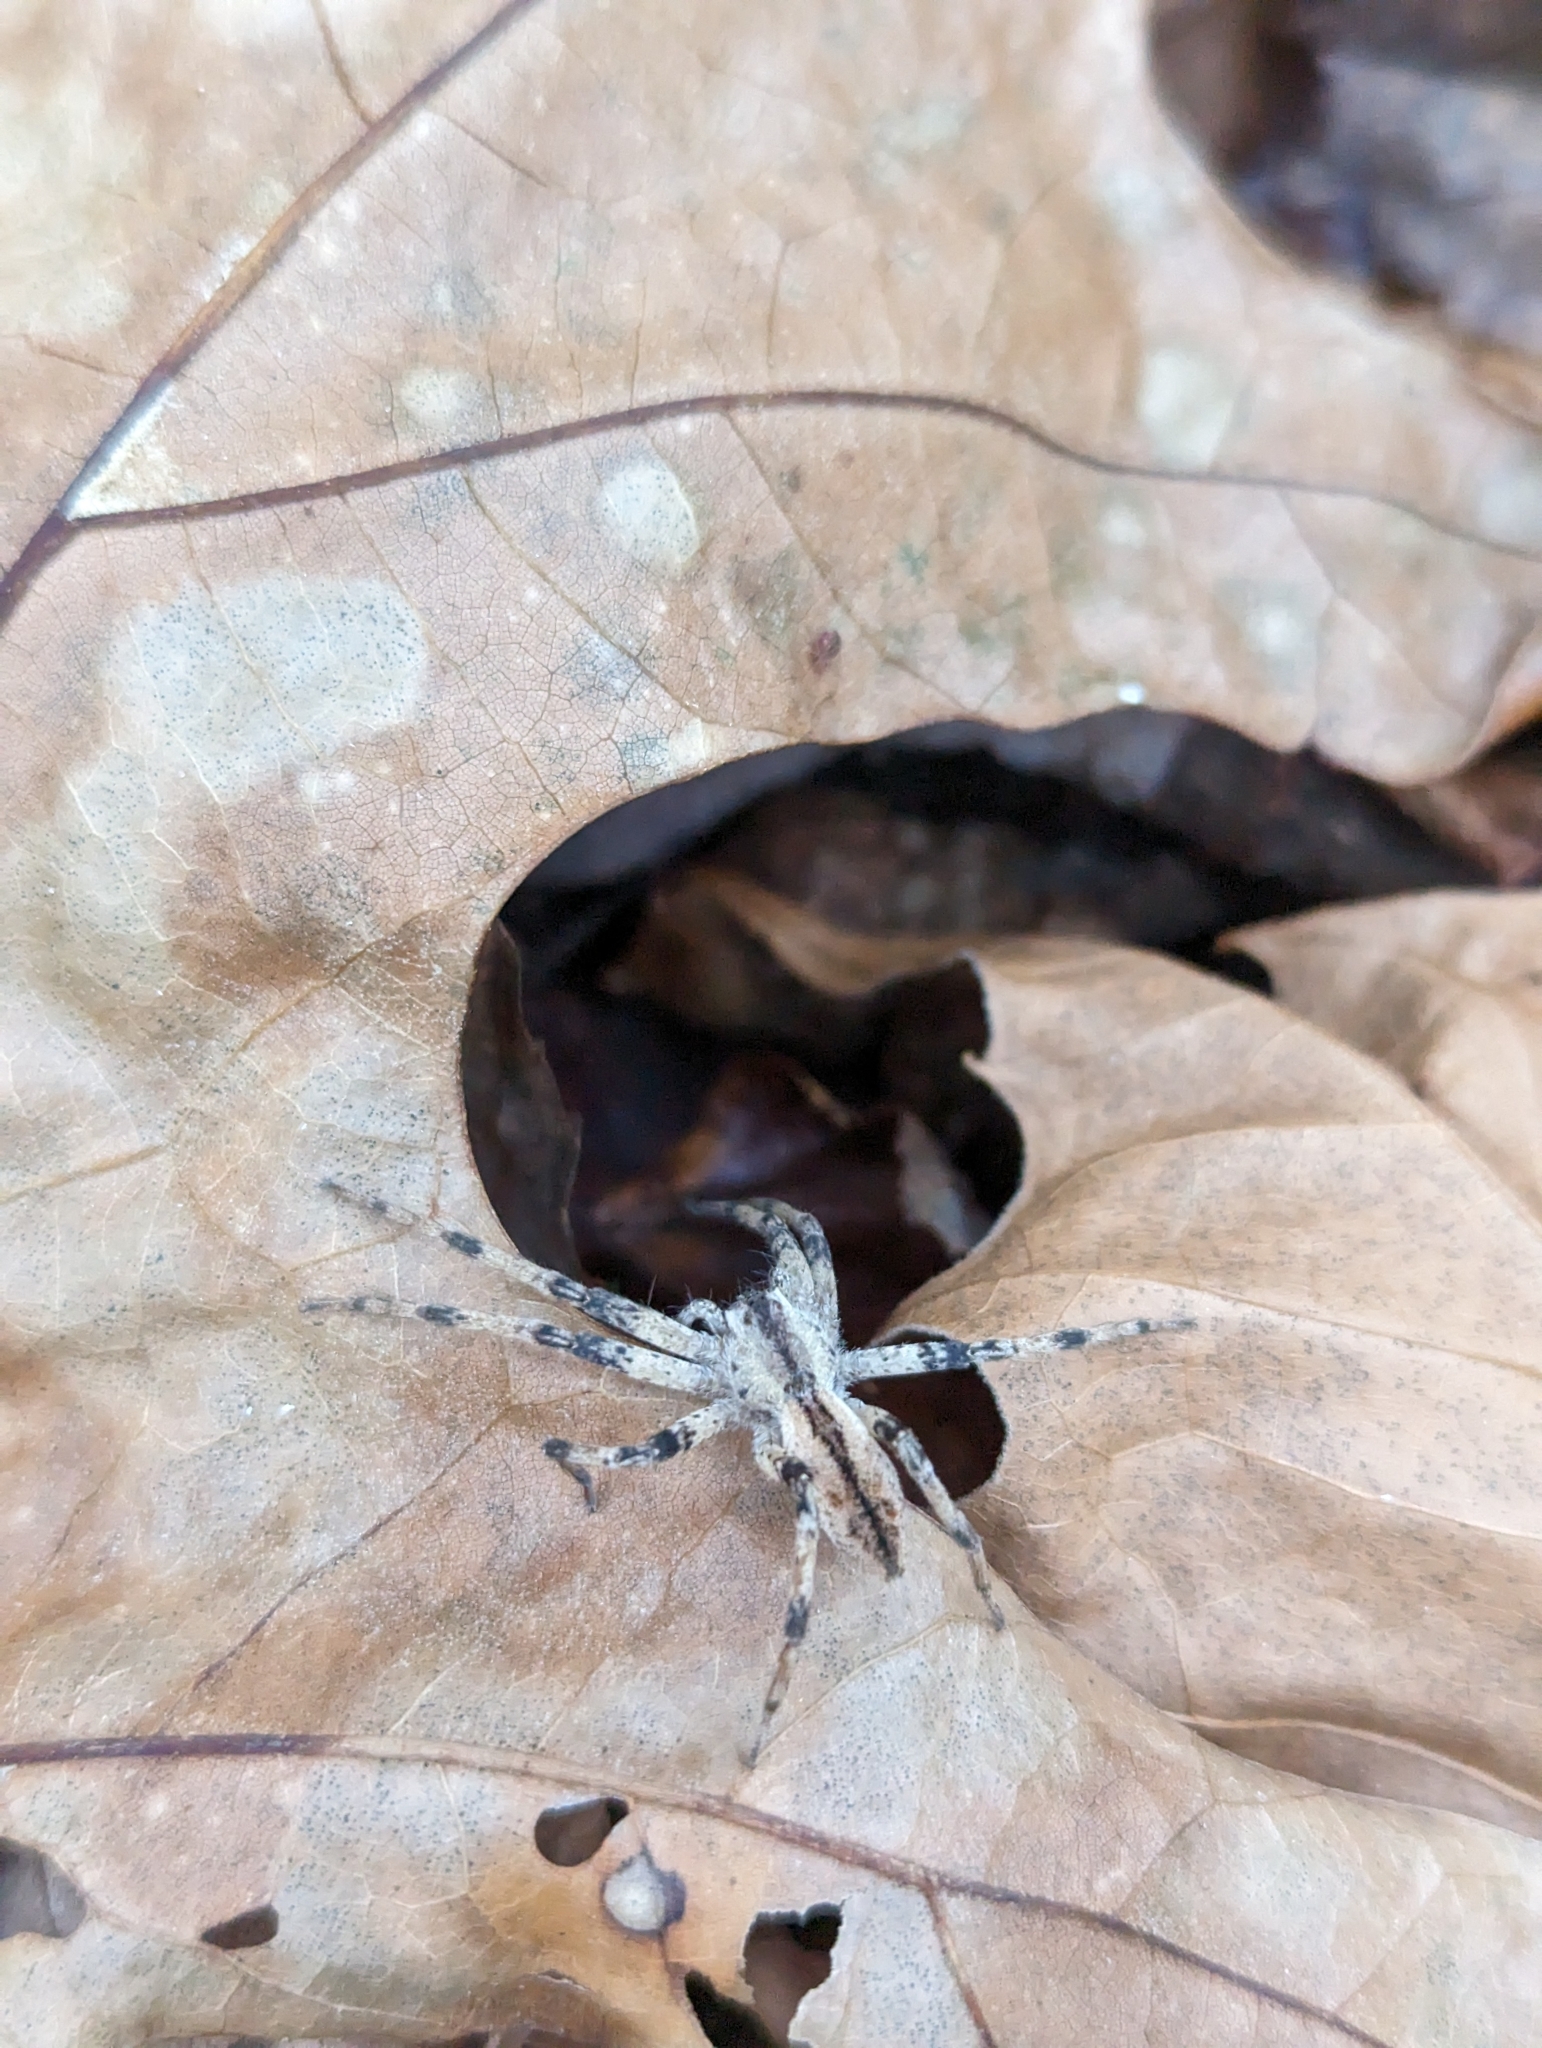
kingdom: Animalia
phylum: Arthropoda
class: Arachnida
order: Araneae
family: Pisauridae
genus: Pisaurina
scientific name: Pisaurina mira
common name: American nursery web spider
